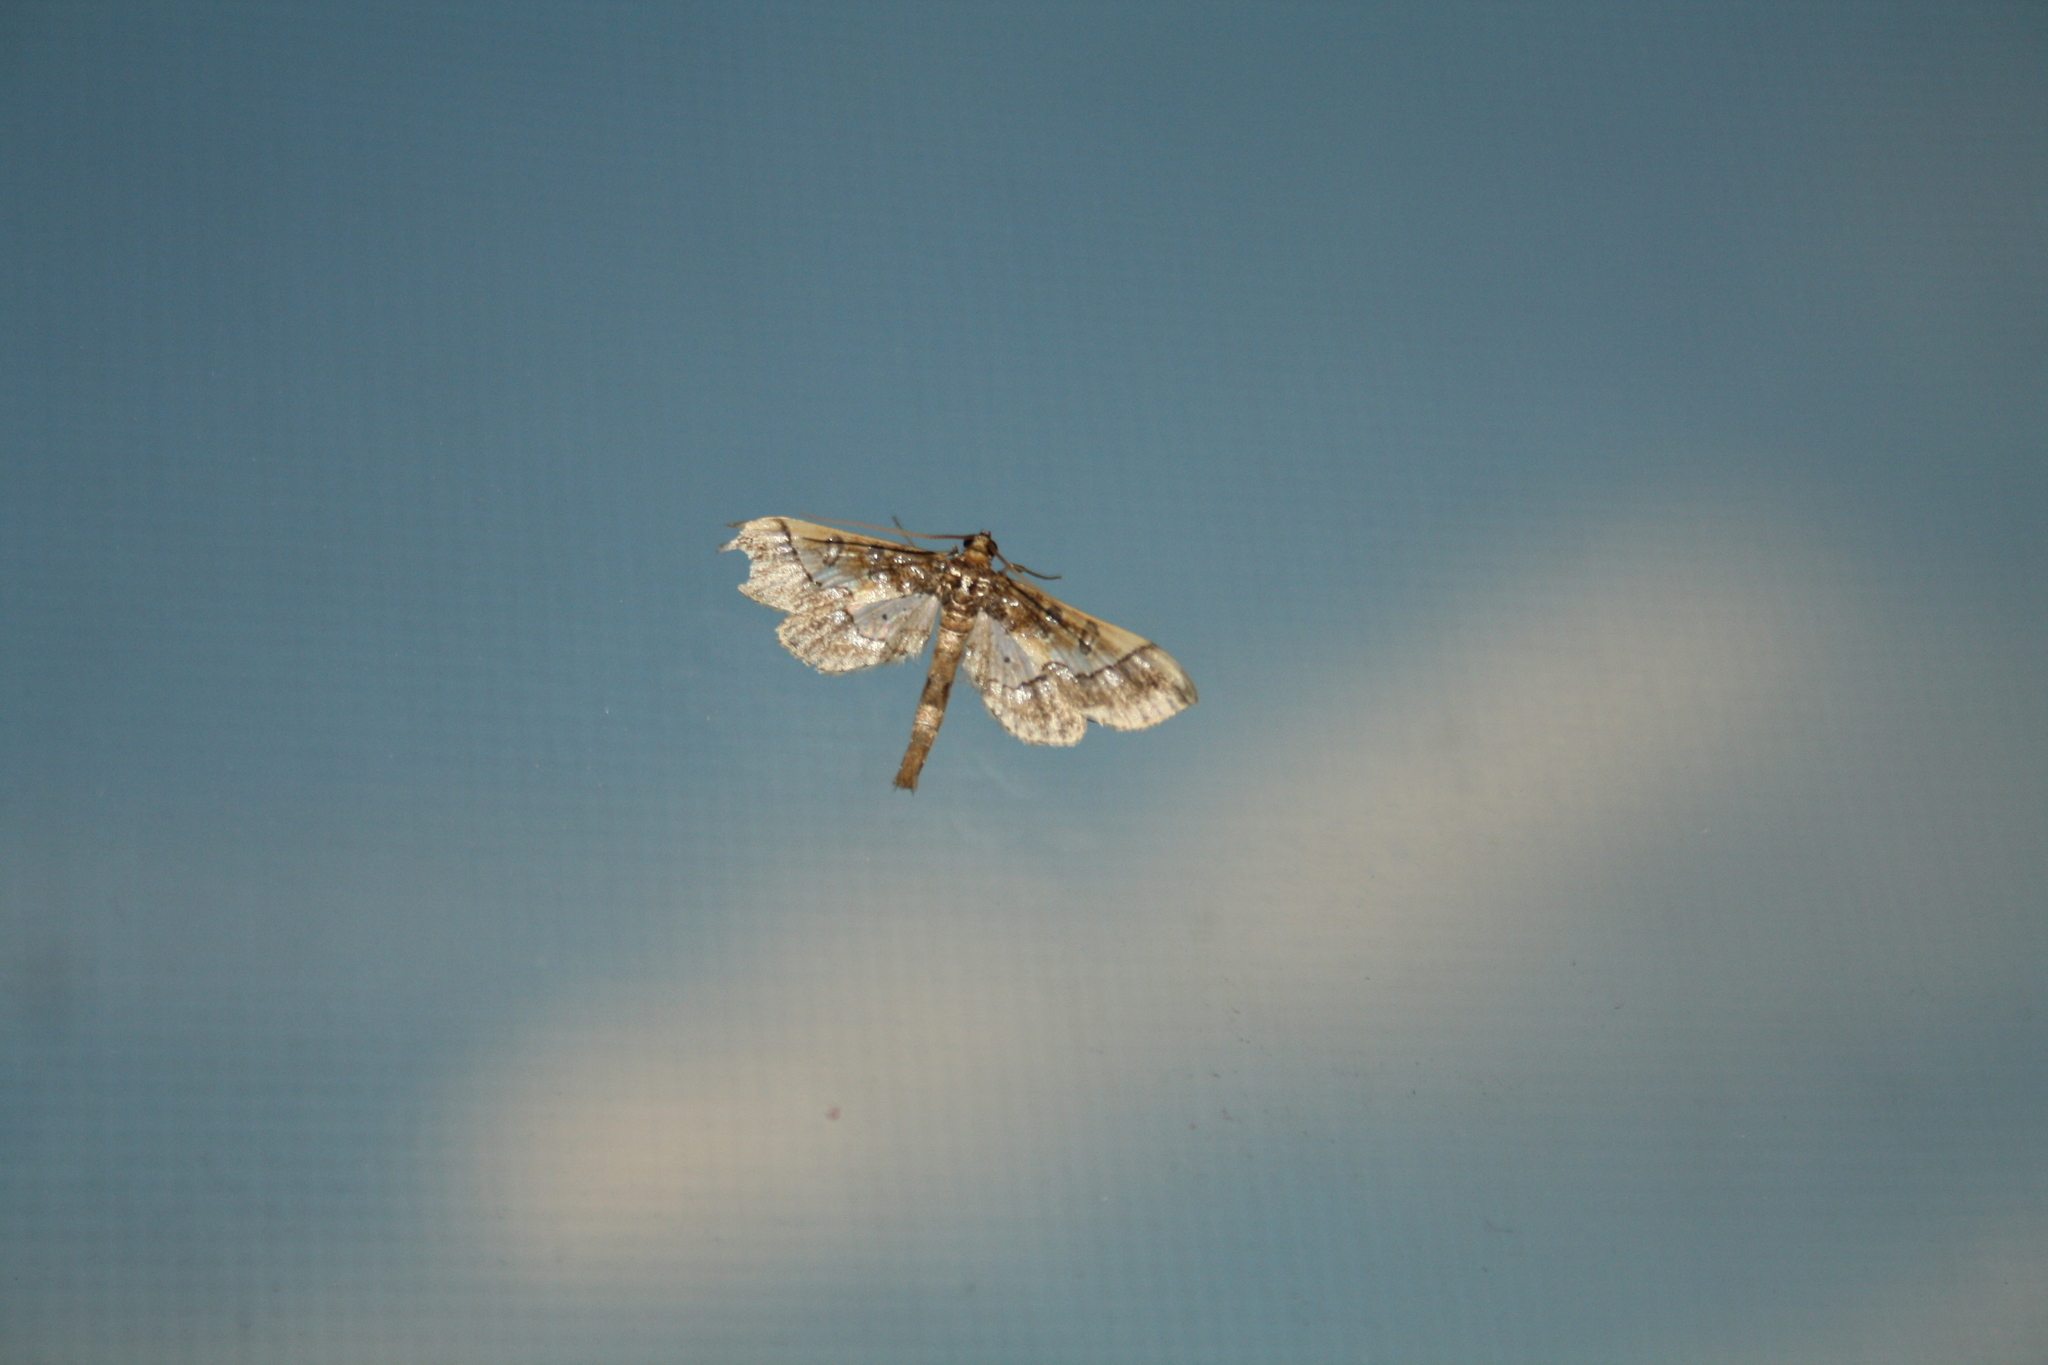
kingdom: Animalia
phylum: Arthropoda
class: Insecta
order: Lepidoptera
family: Crambidae
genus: Hydriris
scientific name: Hydriris ornatalis
